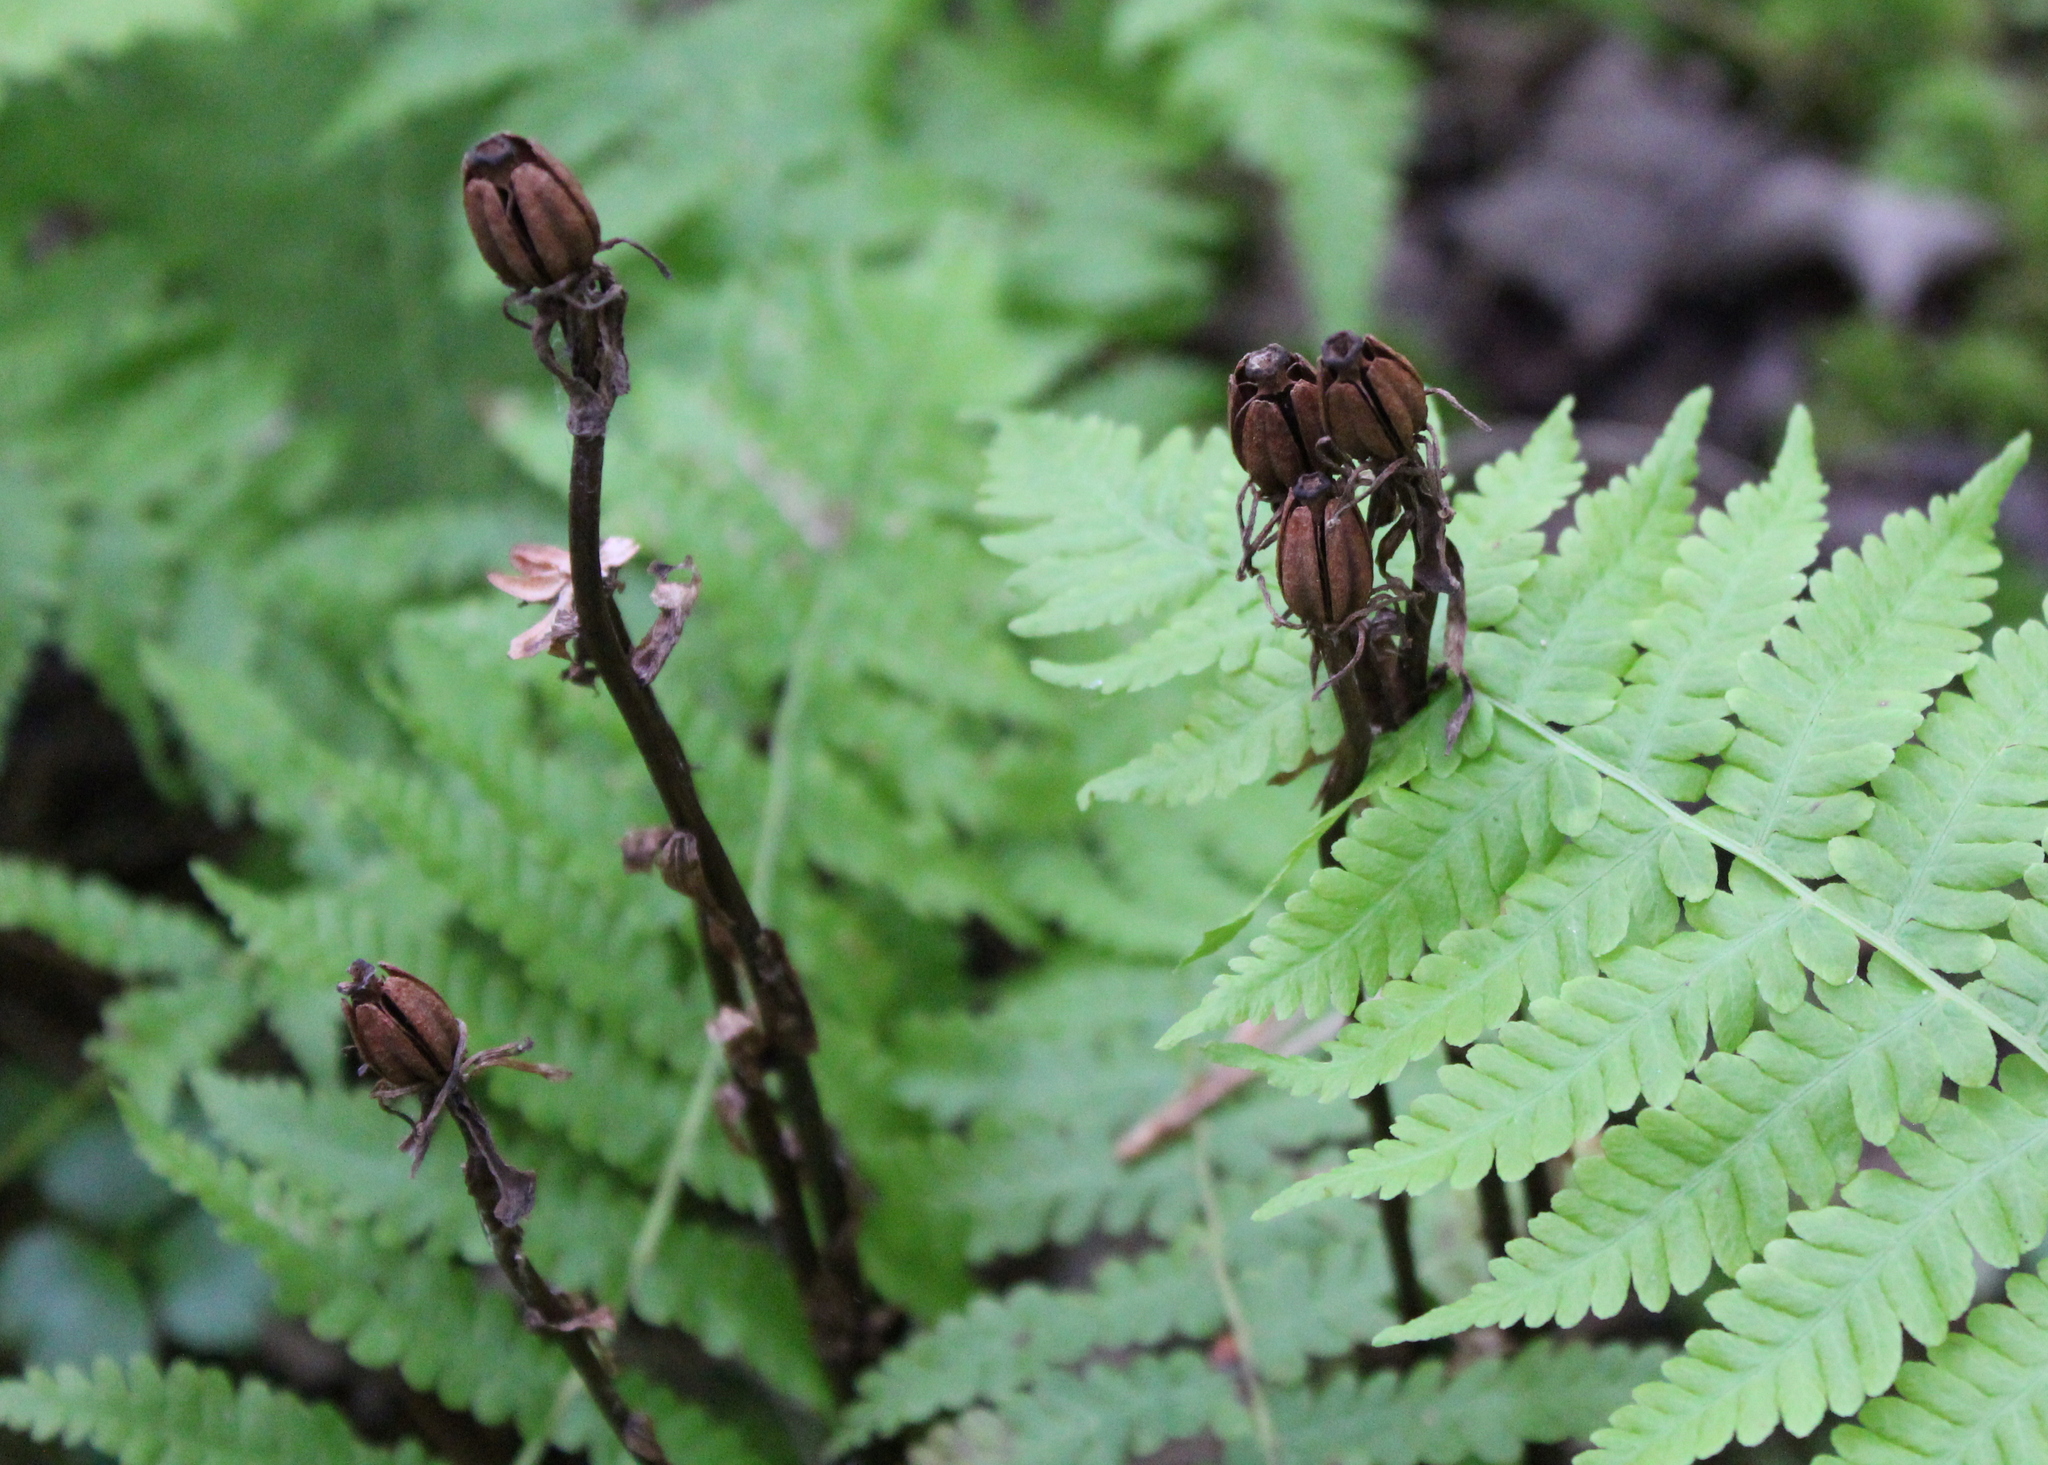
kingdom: Plantae
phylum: Tracheophyta
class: Magnoliopsida
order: Ericales
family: Ericaceae
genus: Monotropa
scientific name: Monotropa uniflora
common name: Convulsion root
